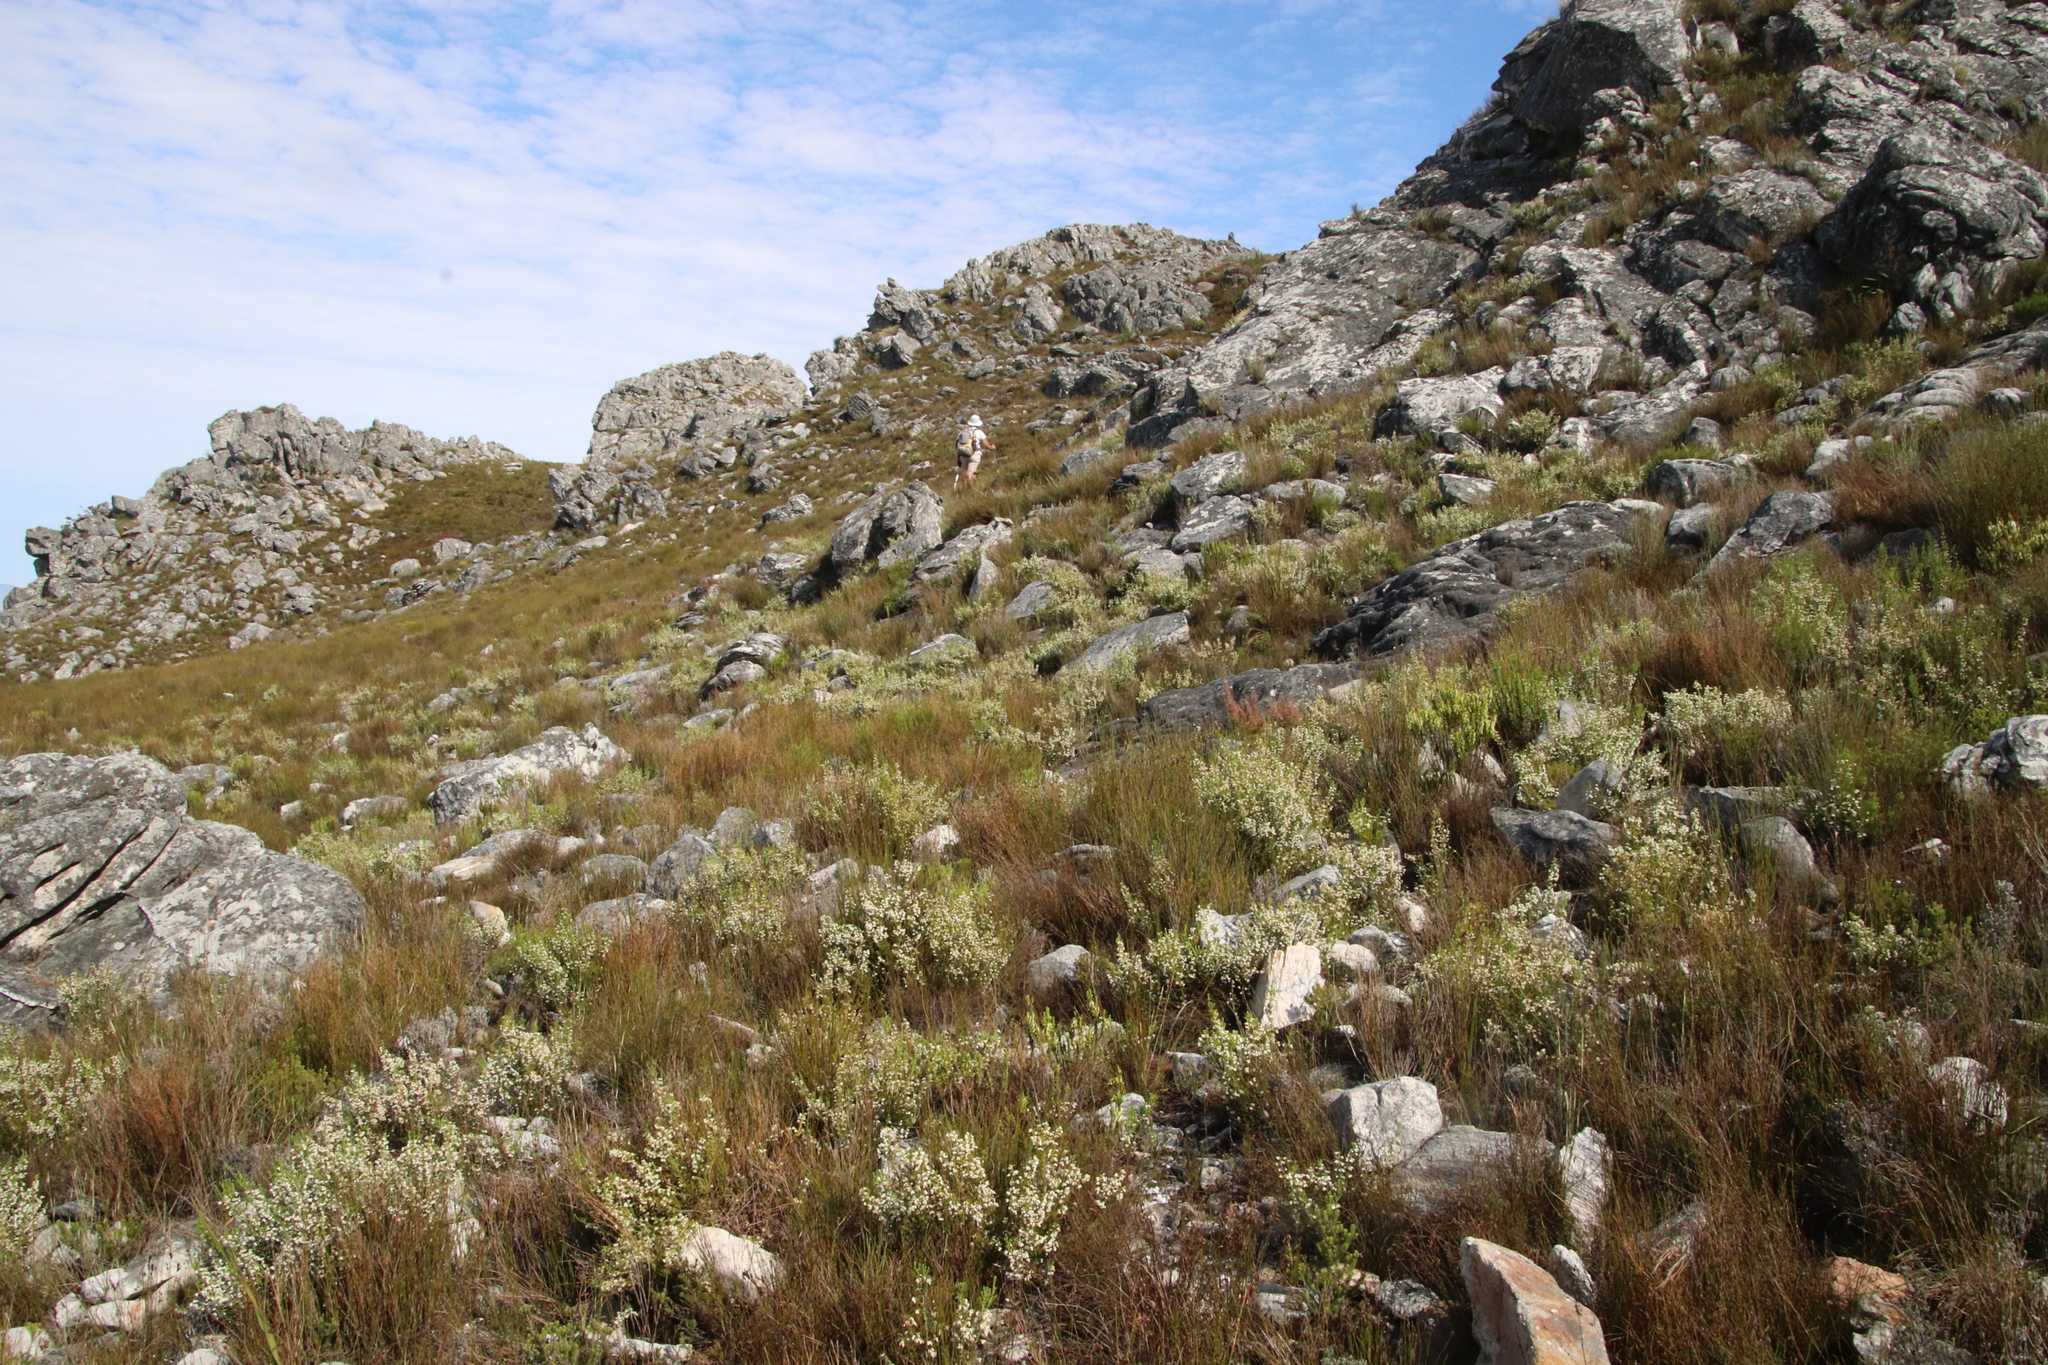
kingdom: Plantae
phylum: Tracheophyta
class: Magnoliopsida
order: Ericales
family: Ericaceae
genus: Erica
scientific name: Erica calycina
